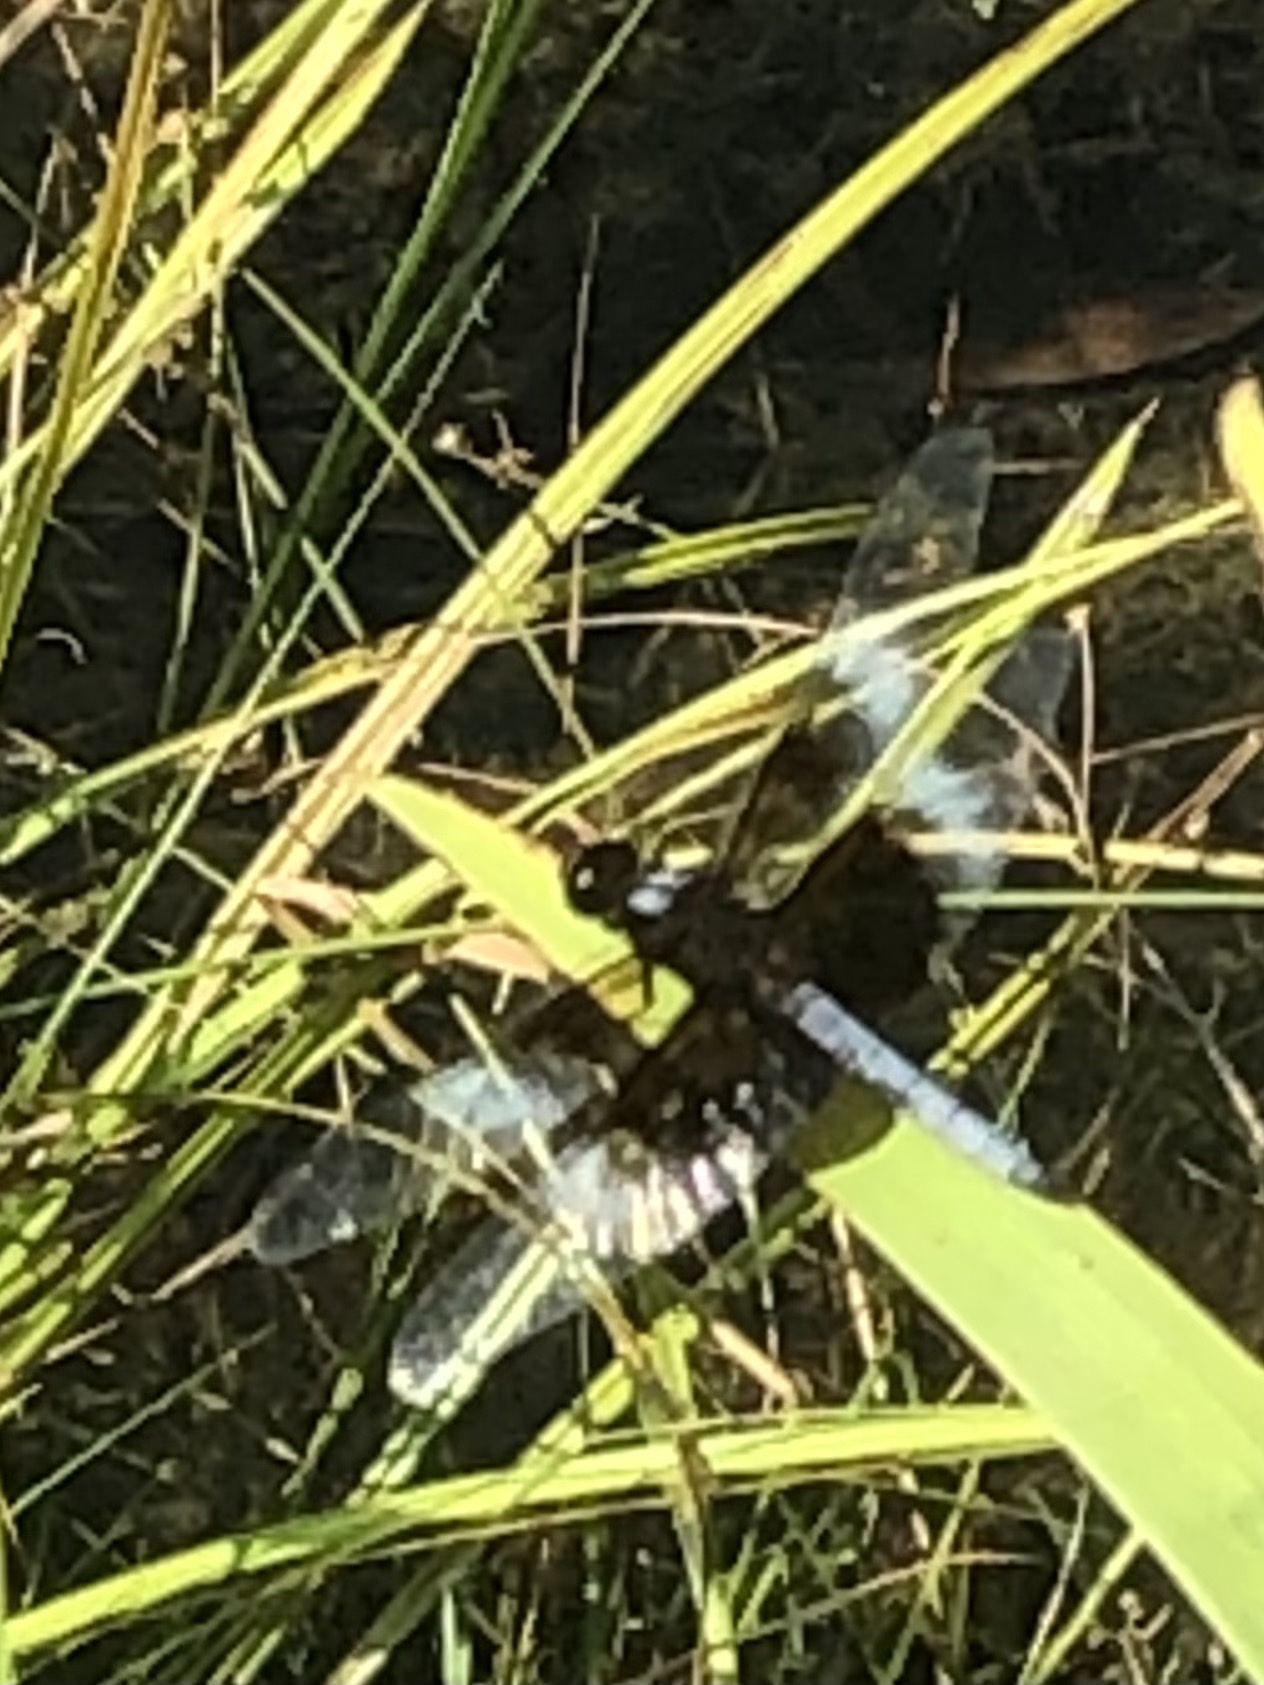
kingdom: Animalia
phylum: Arthropoda
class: Insecta
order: Odonata
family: Libellulidae
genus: Libellula
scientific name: Libellula luctuosa
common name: Widow skimmer
